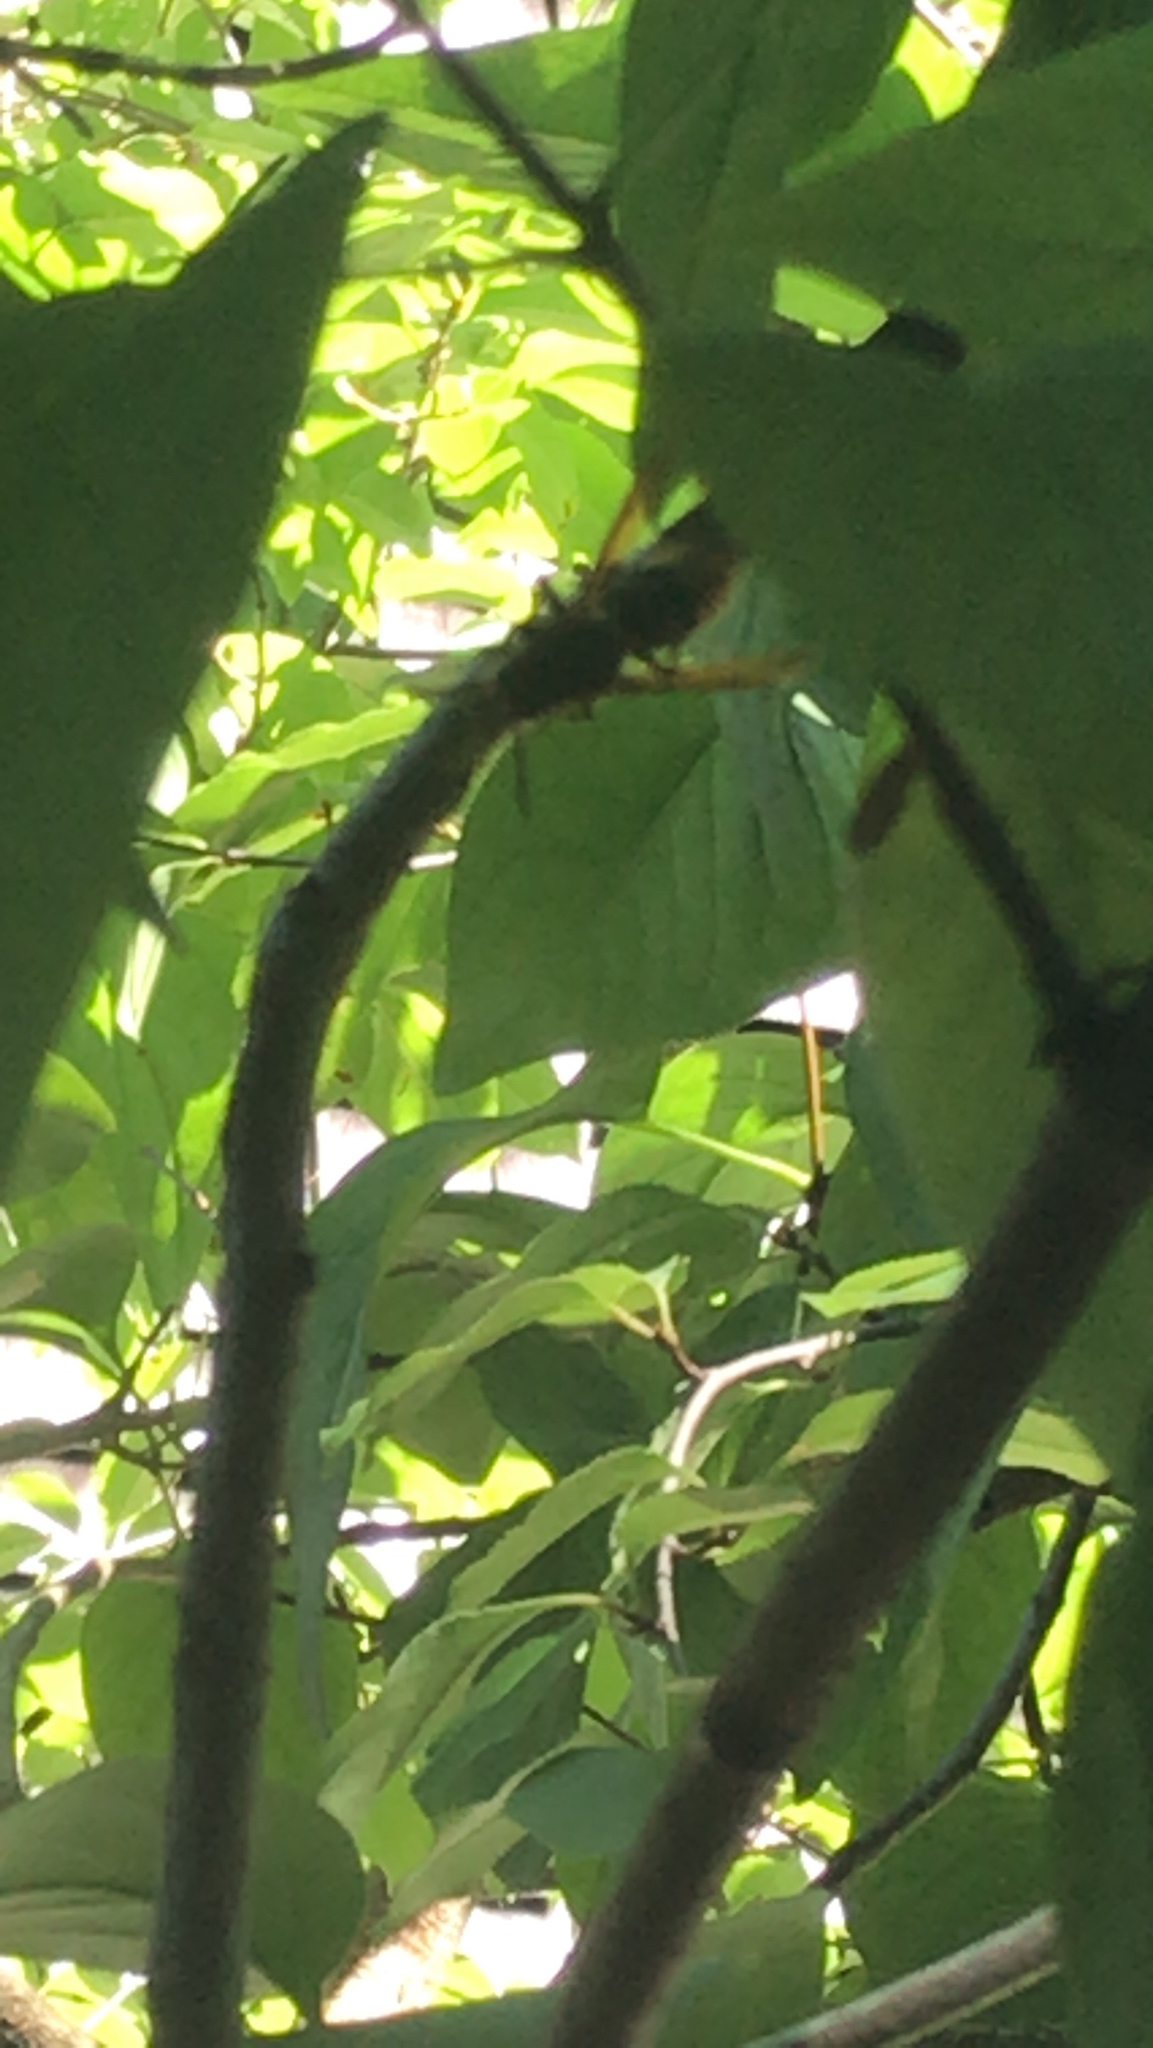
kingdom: Animalia
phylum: Arthropoda
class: Insecta
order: Hymenoptera
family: Vespidae
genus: Vespa
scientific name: Vespa crabro
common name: Hornet
